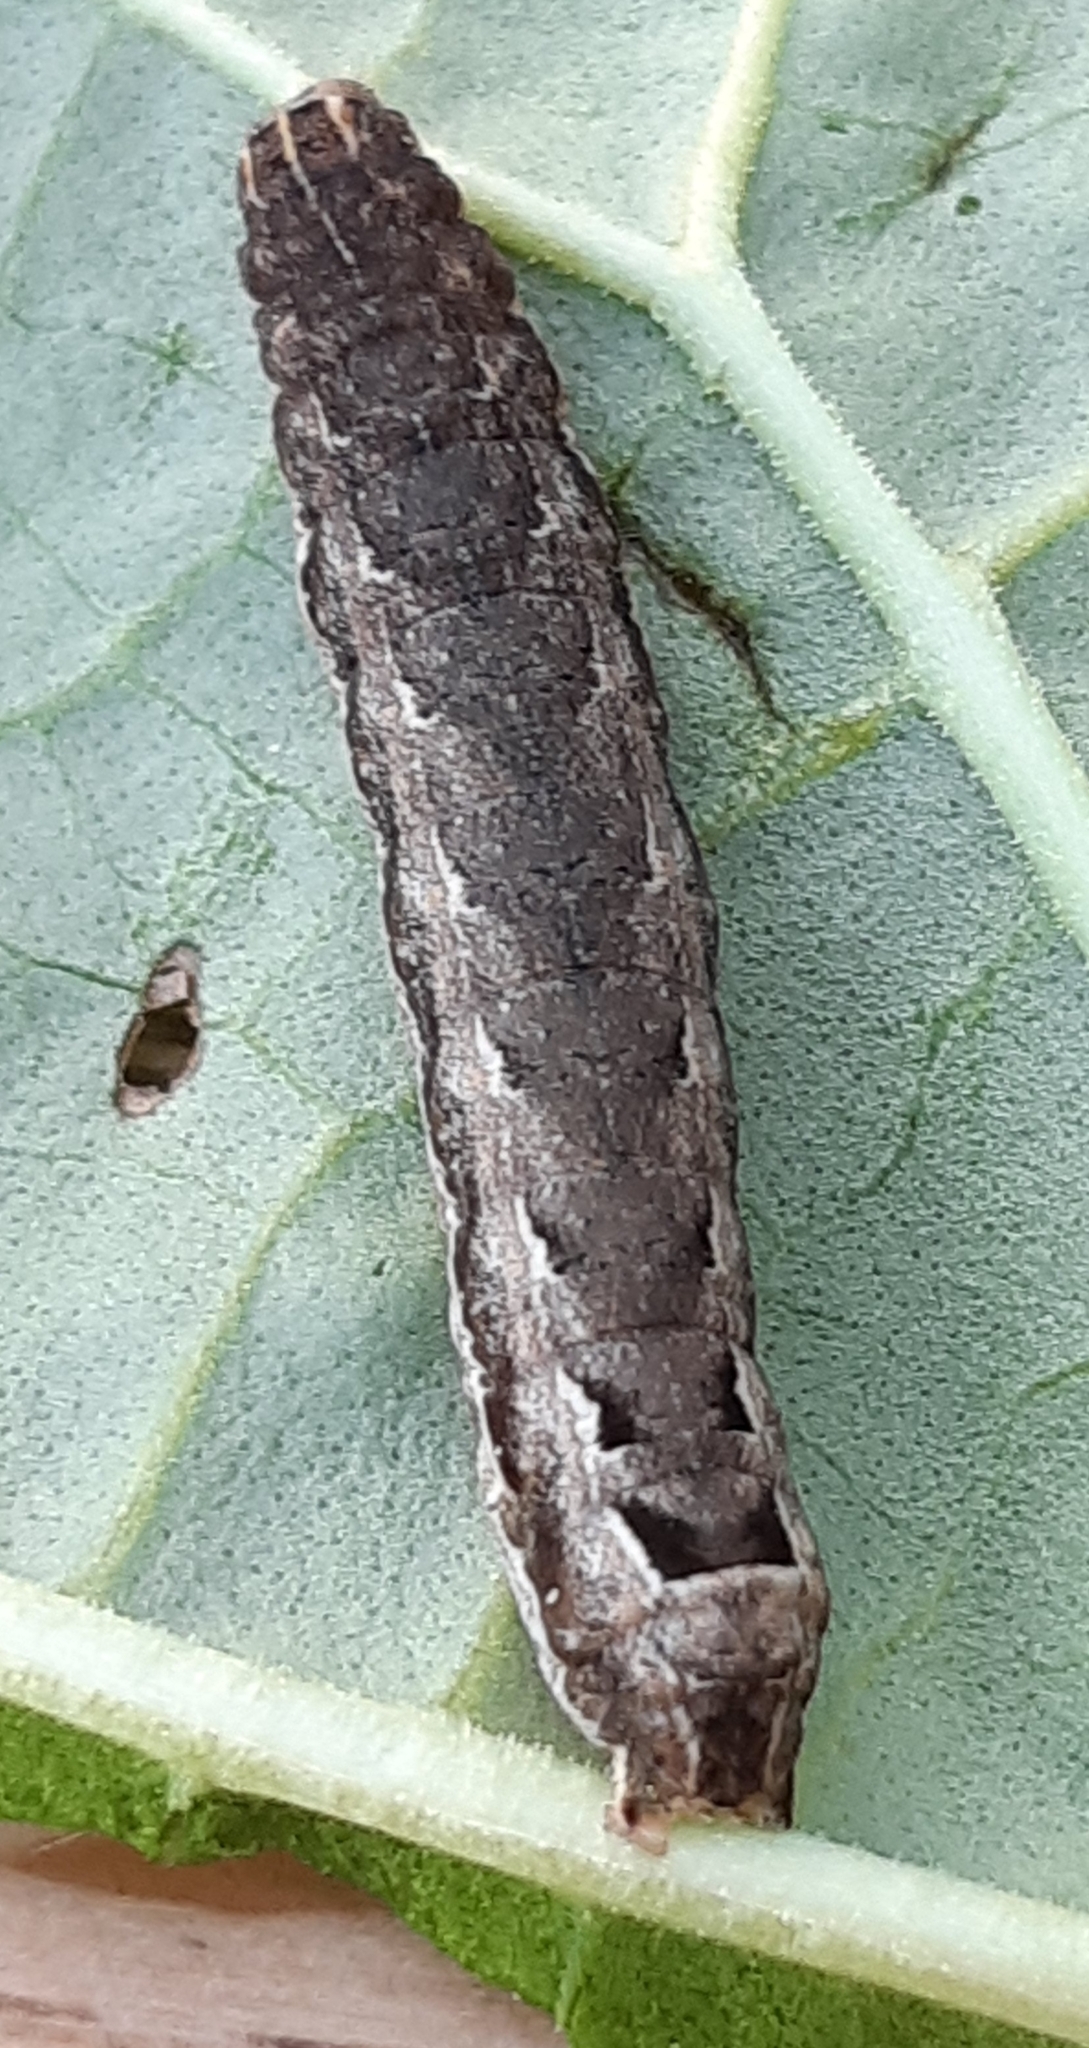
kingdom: Animalia
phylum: Arthropoda
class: Insecta
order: Lepidoptera
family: Noctuidae
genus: Noctua
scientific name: Noctua comes
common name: Lesser yellow underwing
